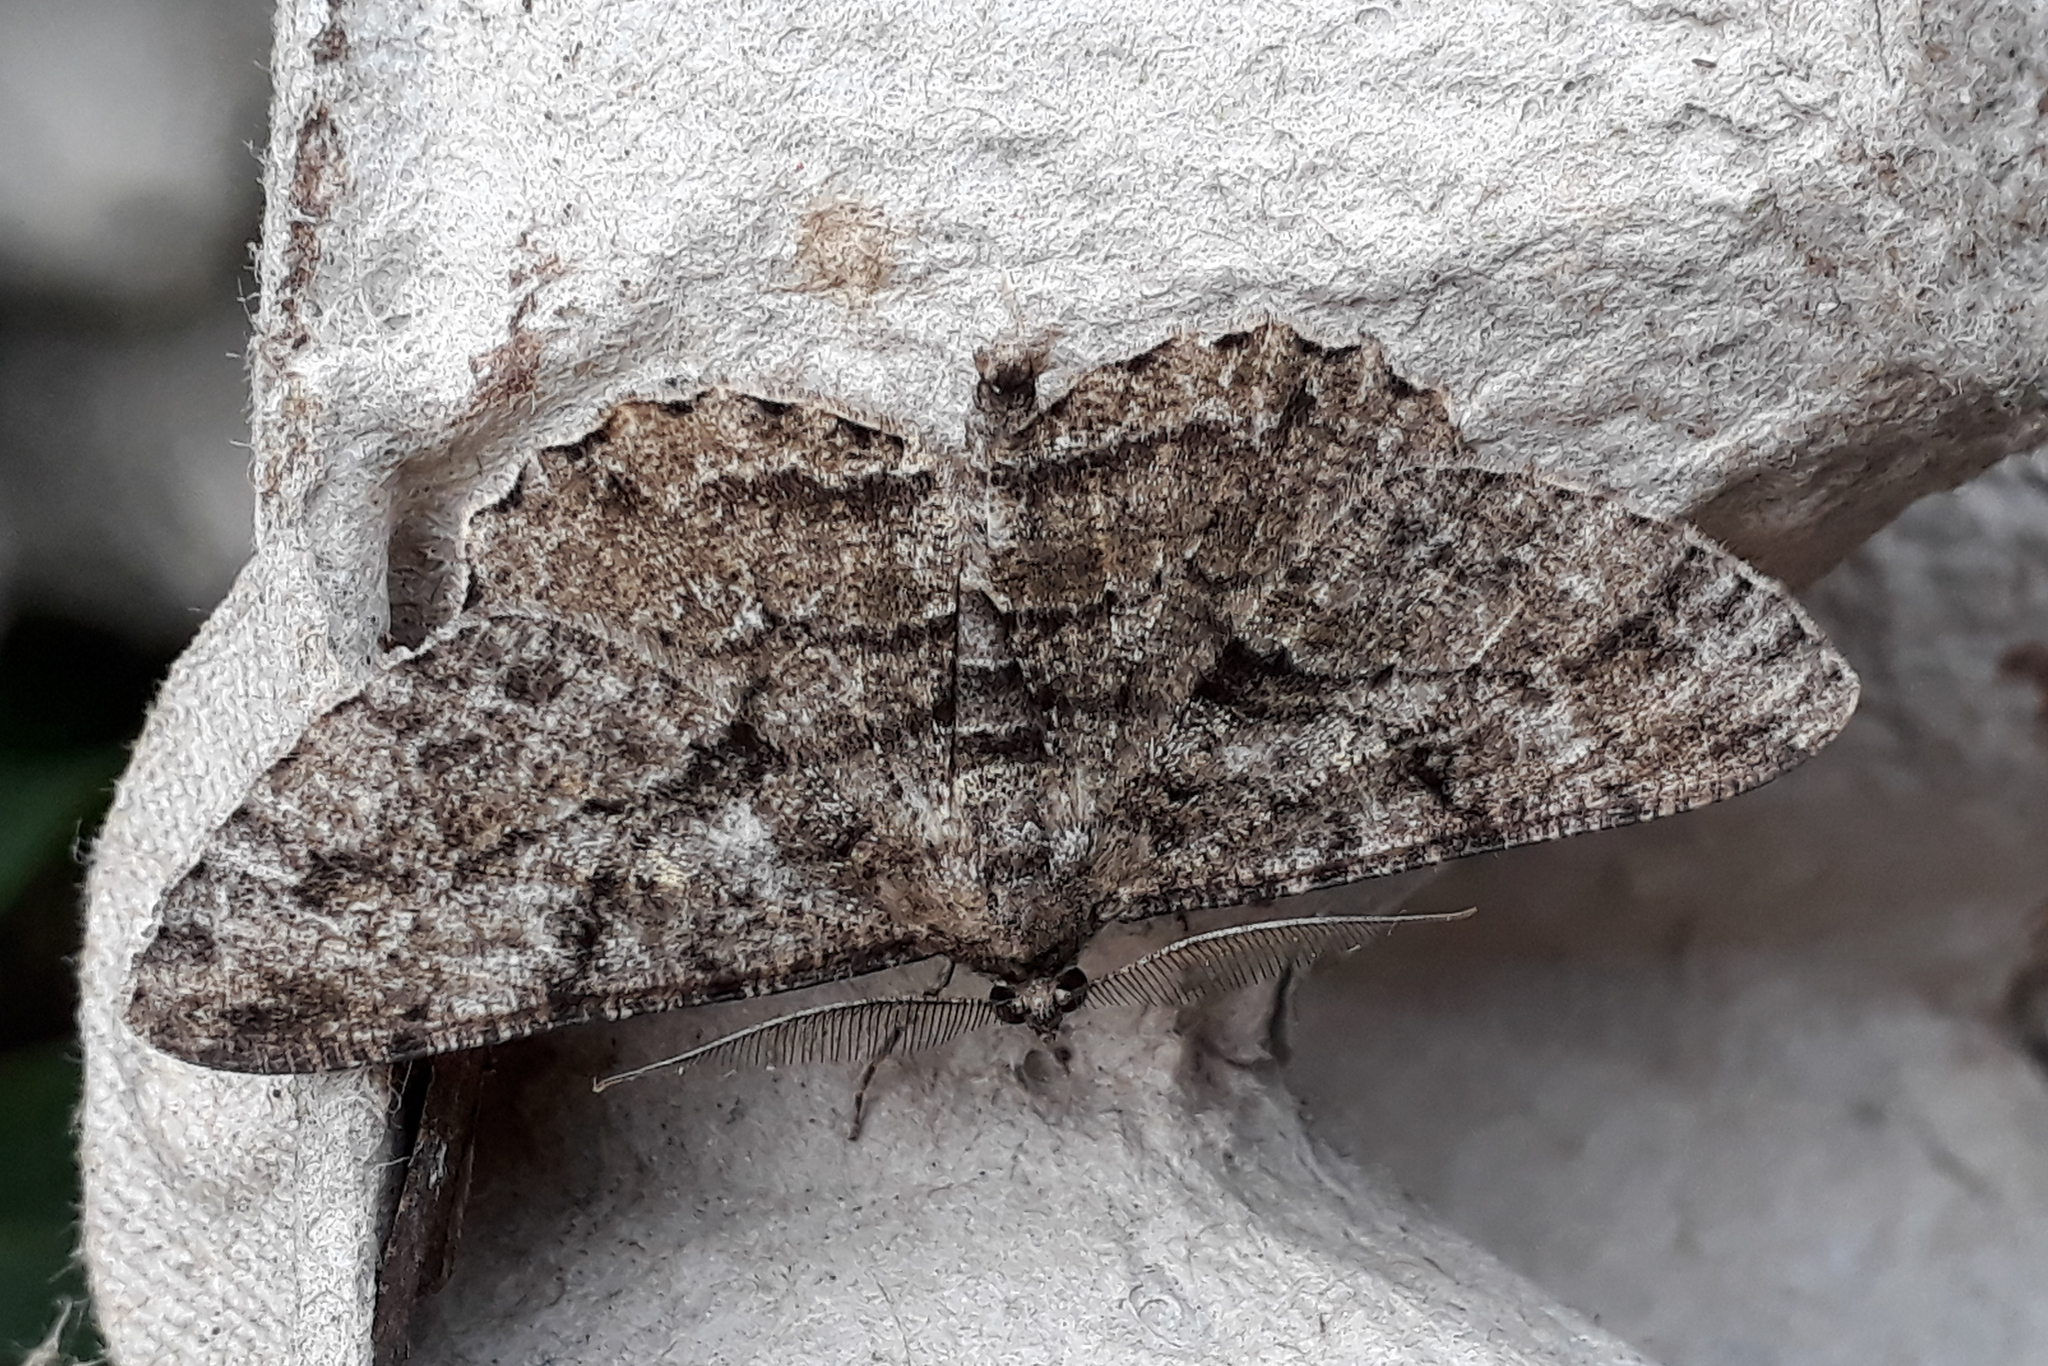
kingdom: Animalia
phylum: Arthropoda
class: Insecta
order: Lepidoptera
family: Geometridae
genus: Peribatodes
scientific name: Peribatodes rhomboidaria
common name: Willow beauty
